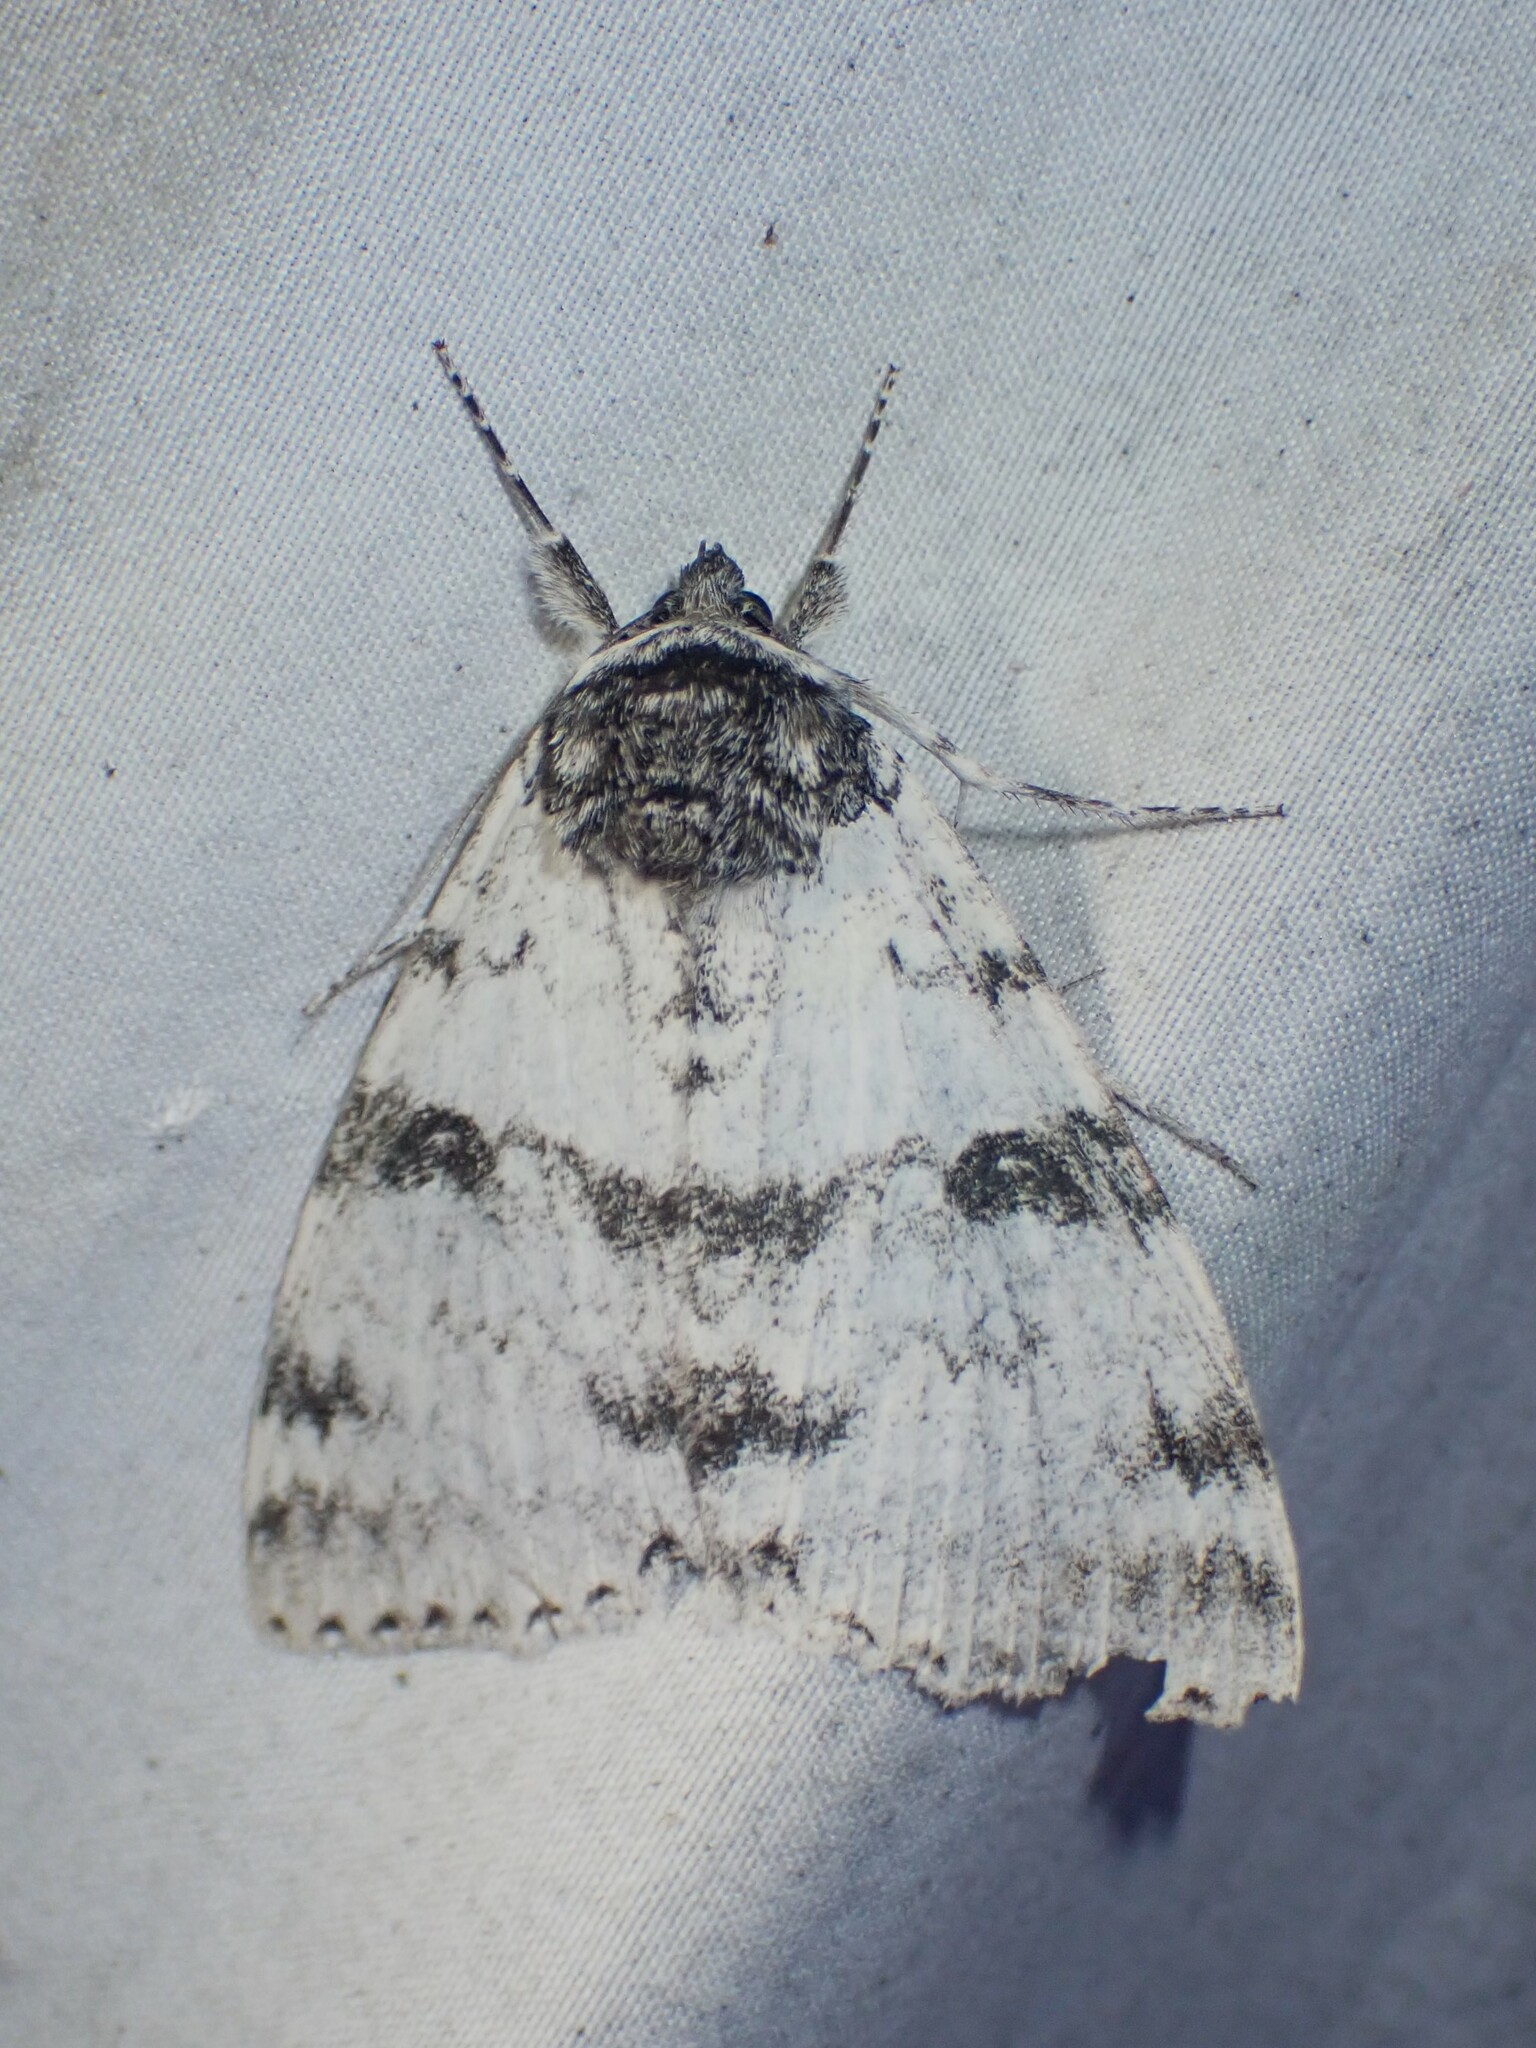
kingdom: Animalia
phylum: Arthropoda
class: Insecta
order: Lepidoptera
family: Erebidae
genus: Catocala
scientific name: Catocala relicta
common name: White underwing
